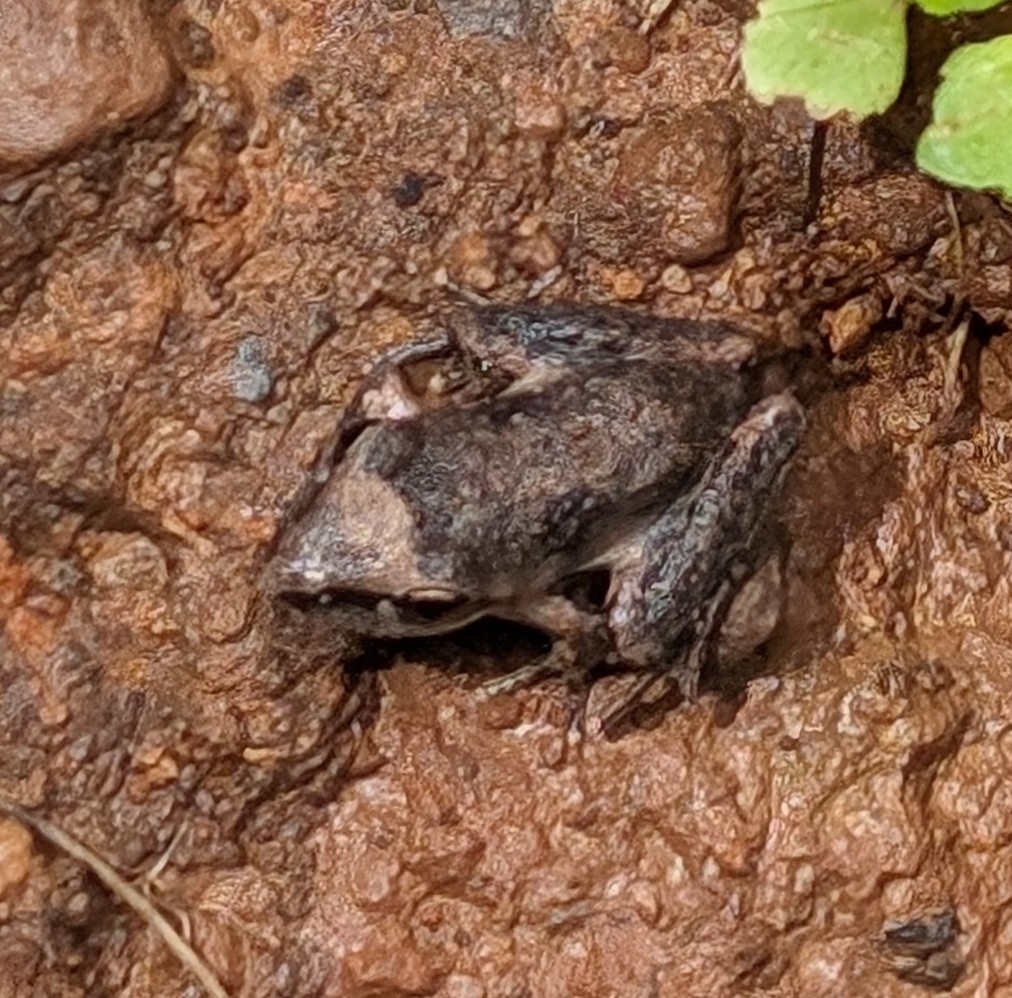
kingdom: Animalia
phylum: Chordata
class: Amphibia
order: Anura
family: Pelodryadidae
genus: Litoria
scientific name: Litoria latopalmata
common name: Broad-palmed rocket frog
